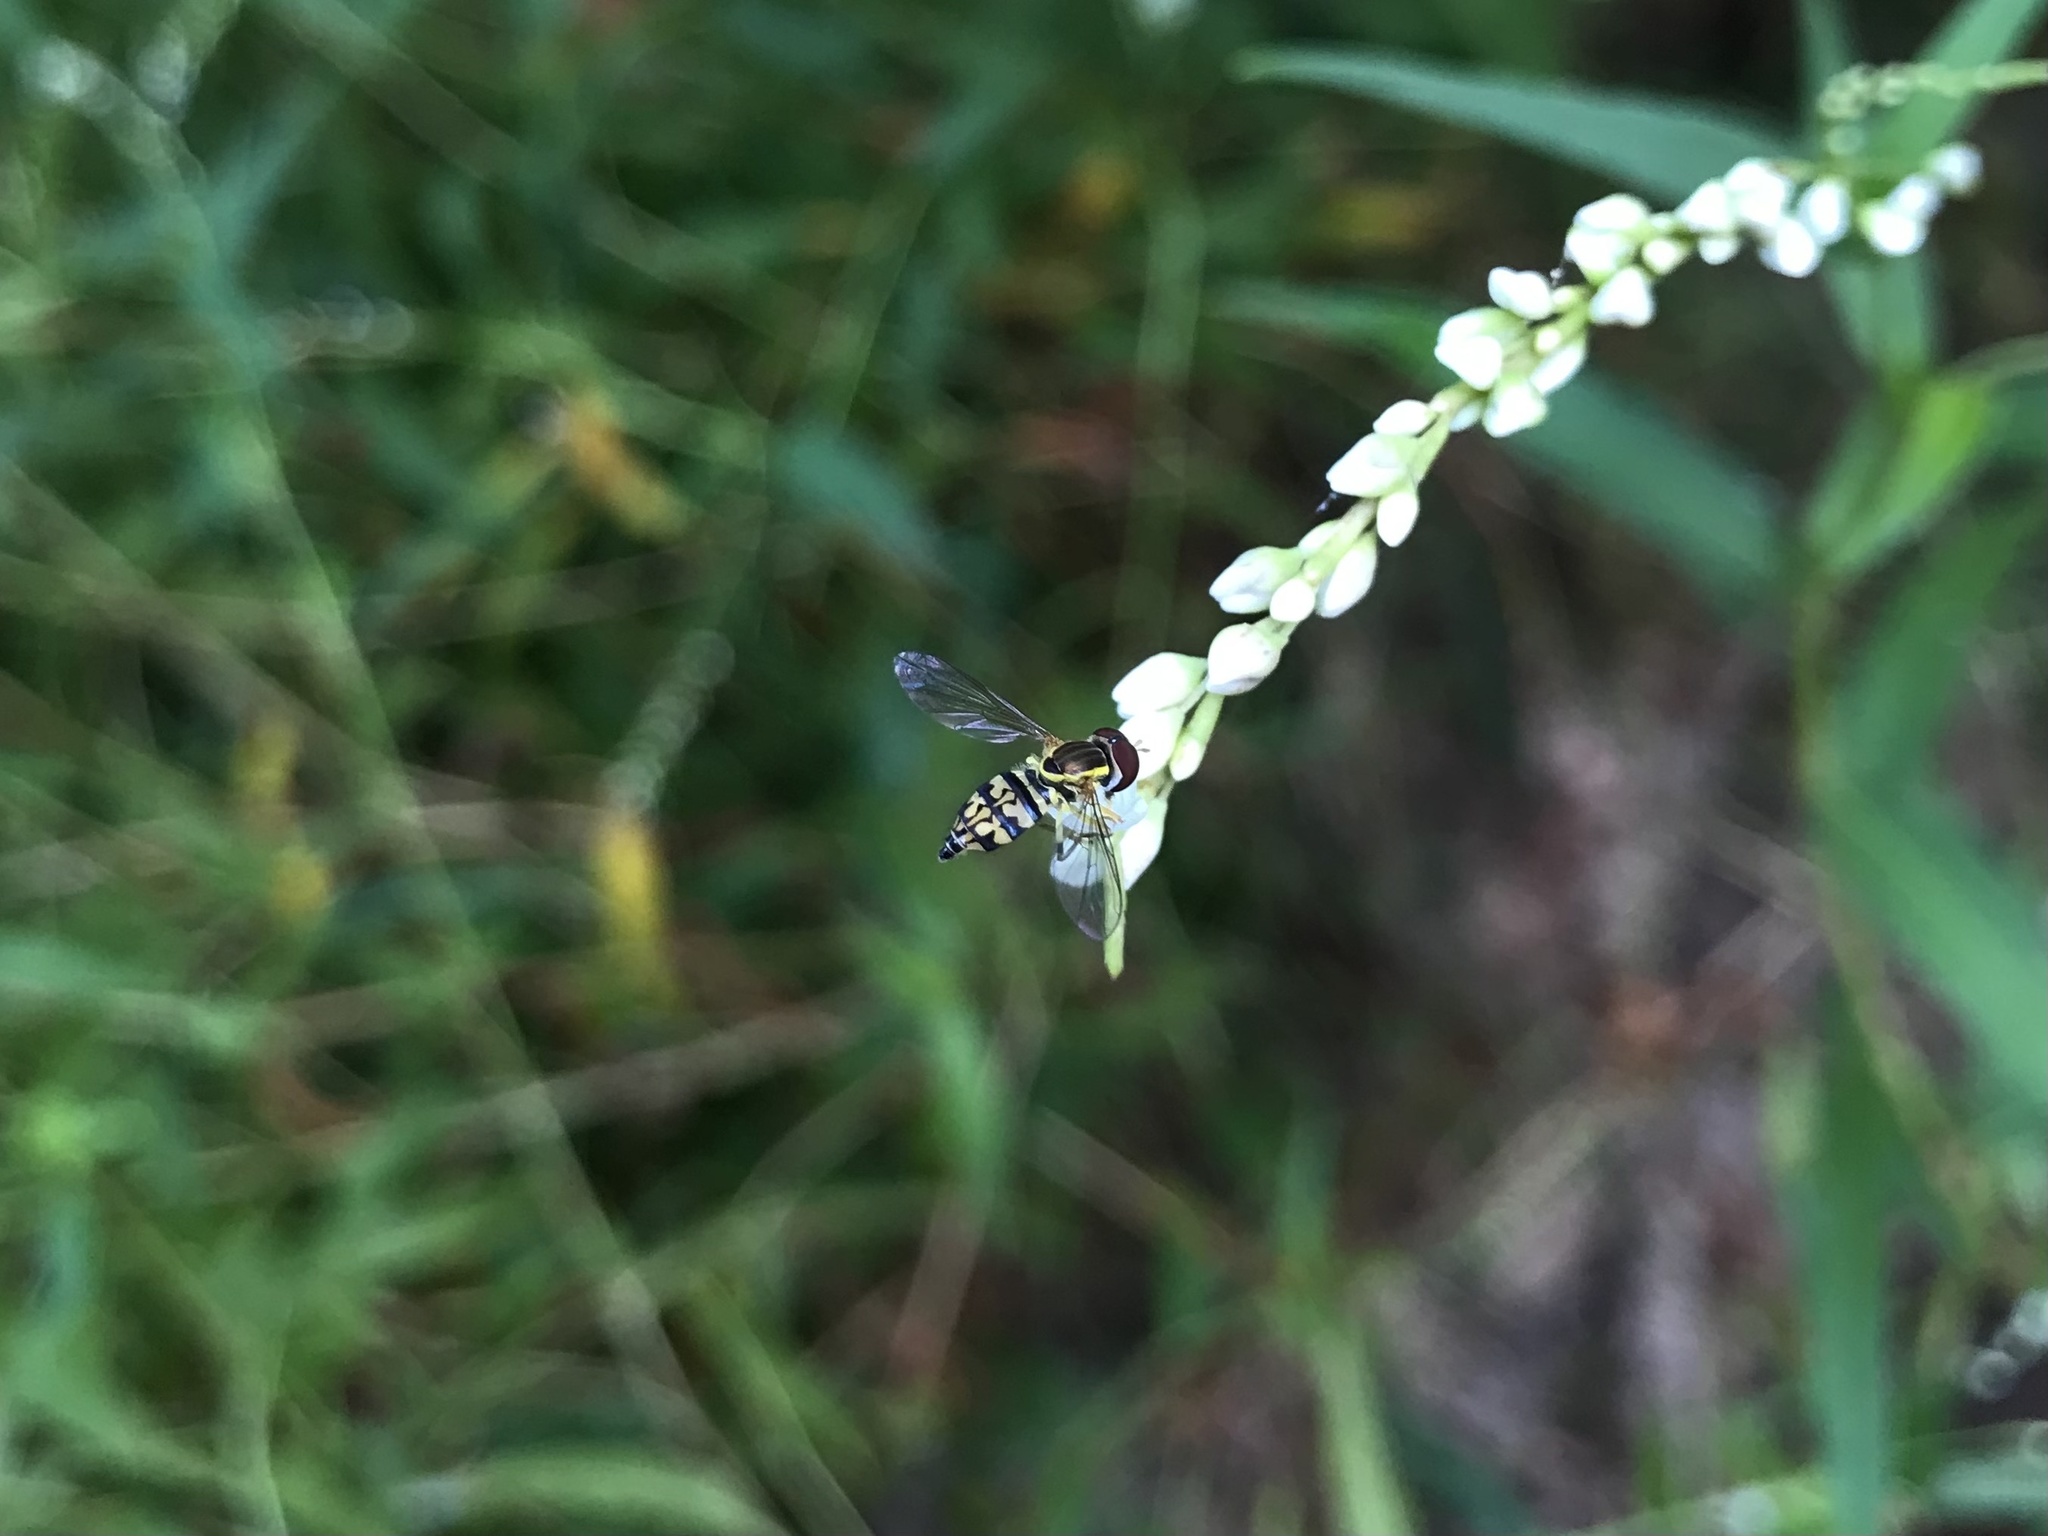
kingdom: Animalia
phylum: Arthropoda
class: Insecta
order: Diptera
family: Syrphidae
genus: Toxomerus
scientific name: Toxomerus geminatus
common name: Eastern calligrapher
